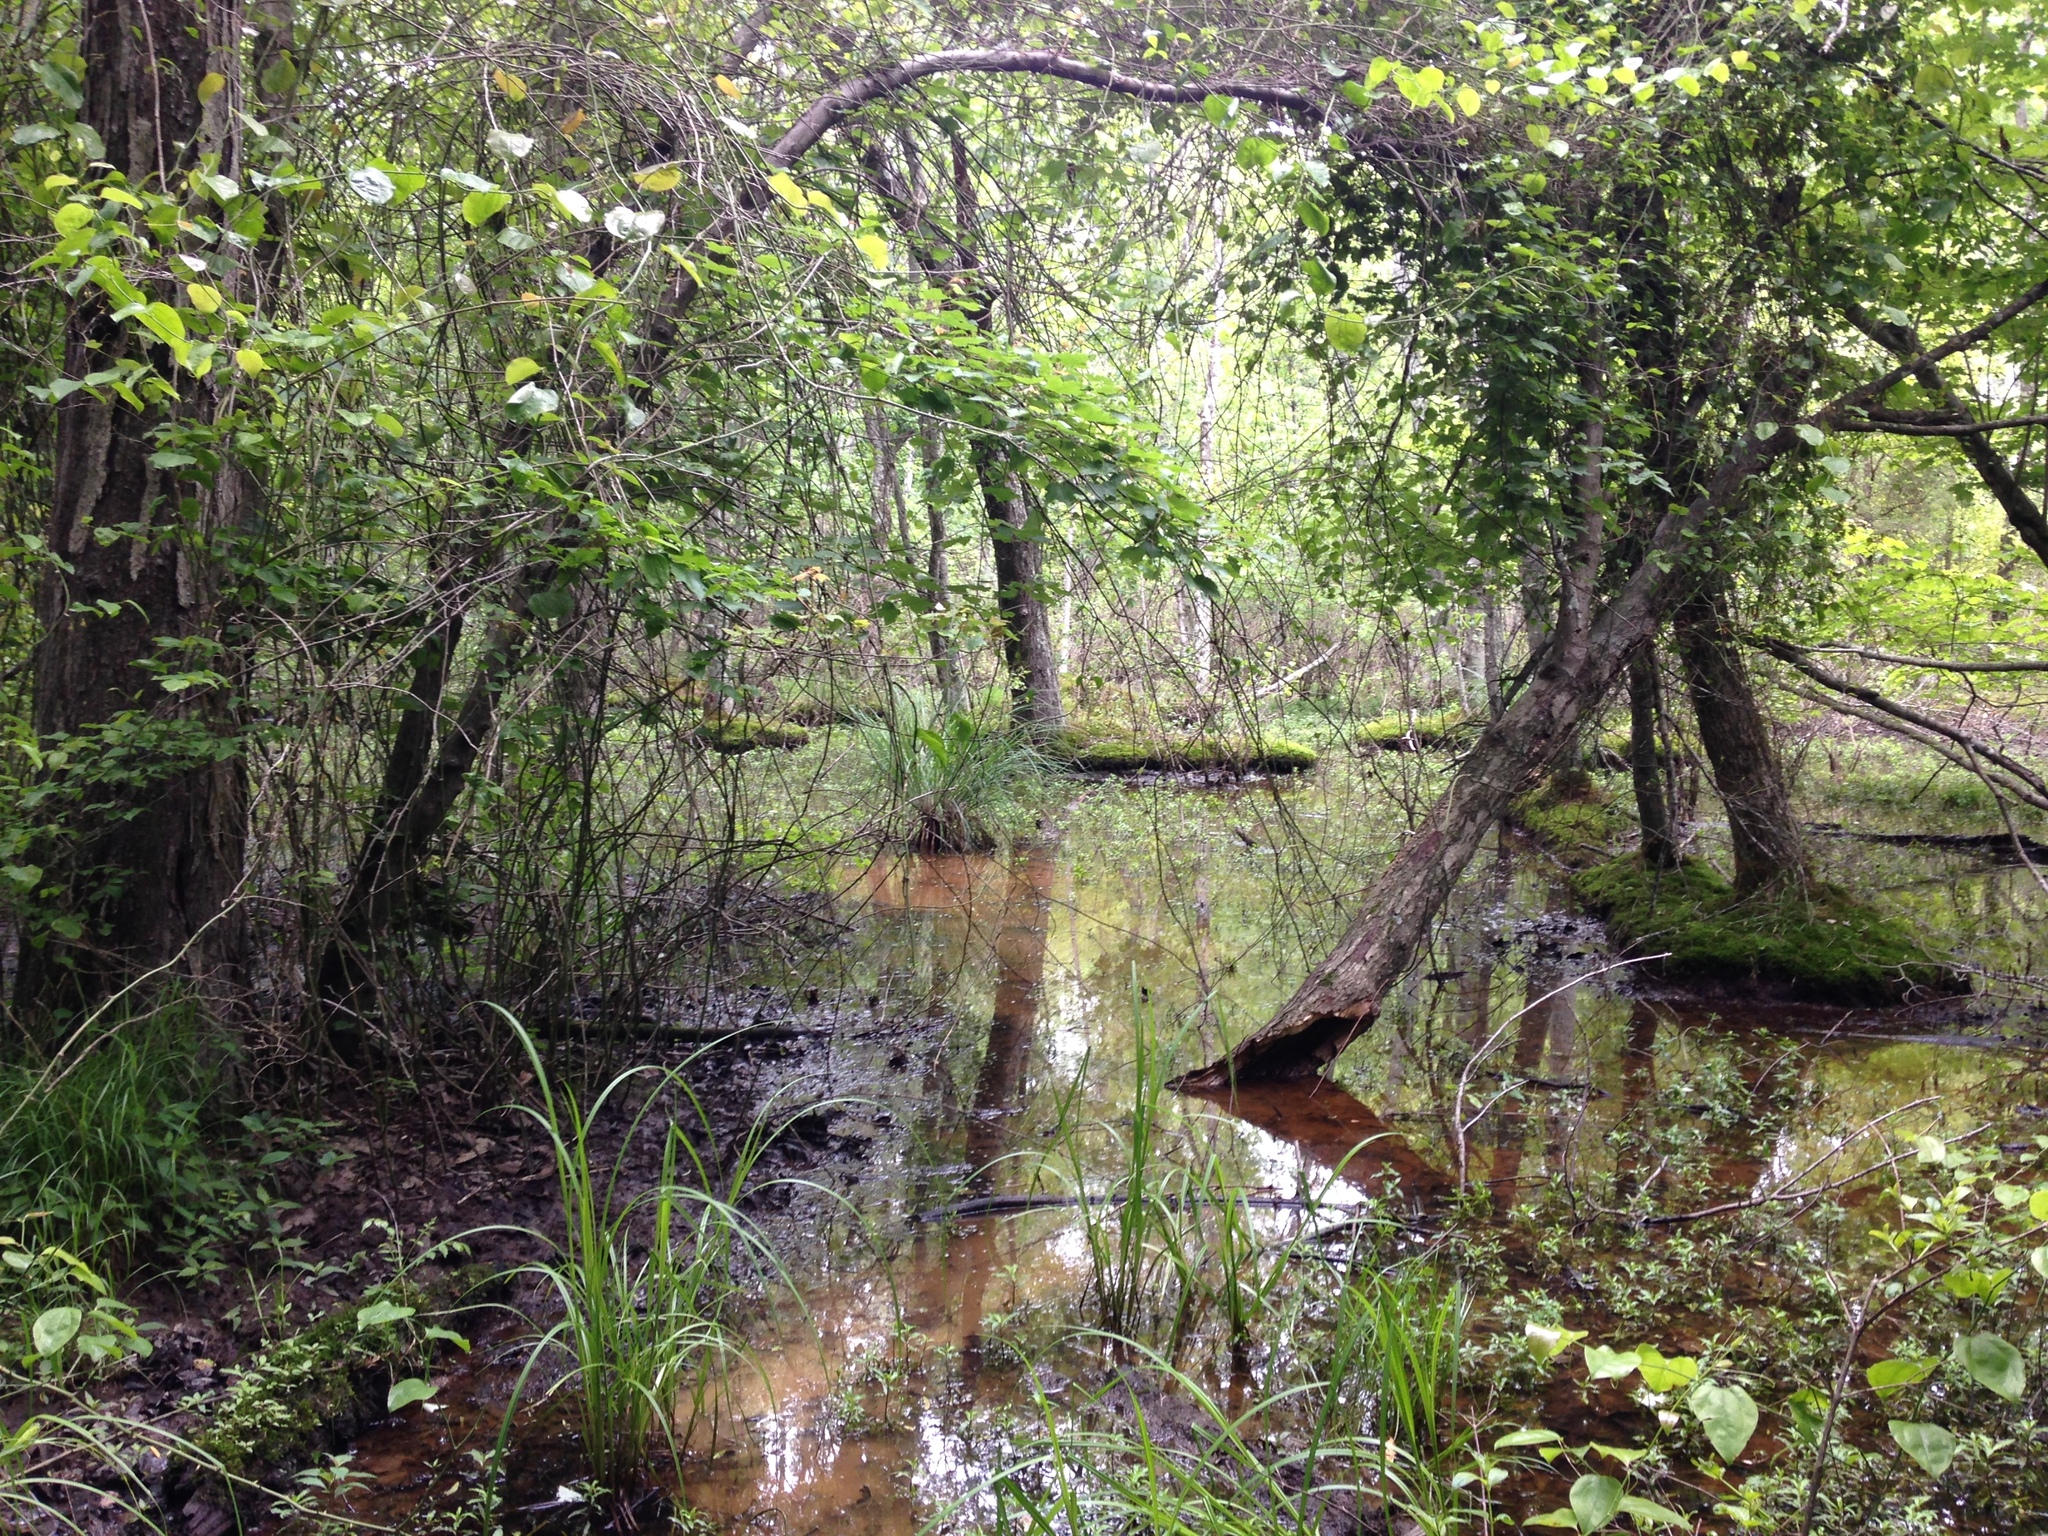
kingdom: Plantae
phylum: Tracheophyta
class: Liliopsida
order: Poales
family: Cyperaceae
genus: Carex
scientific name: Carex decomposita
